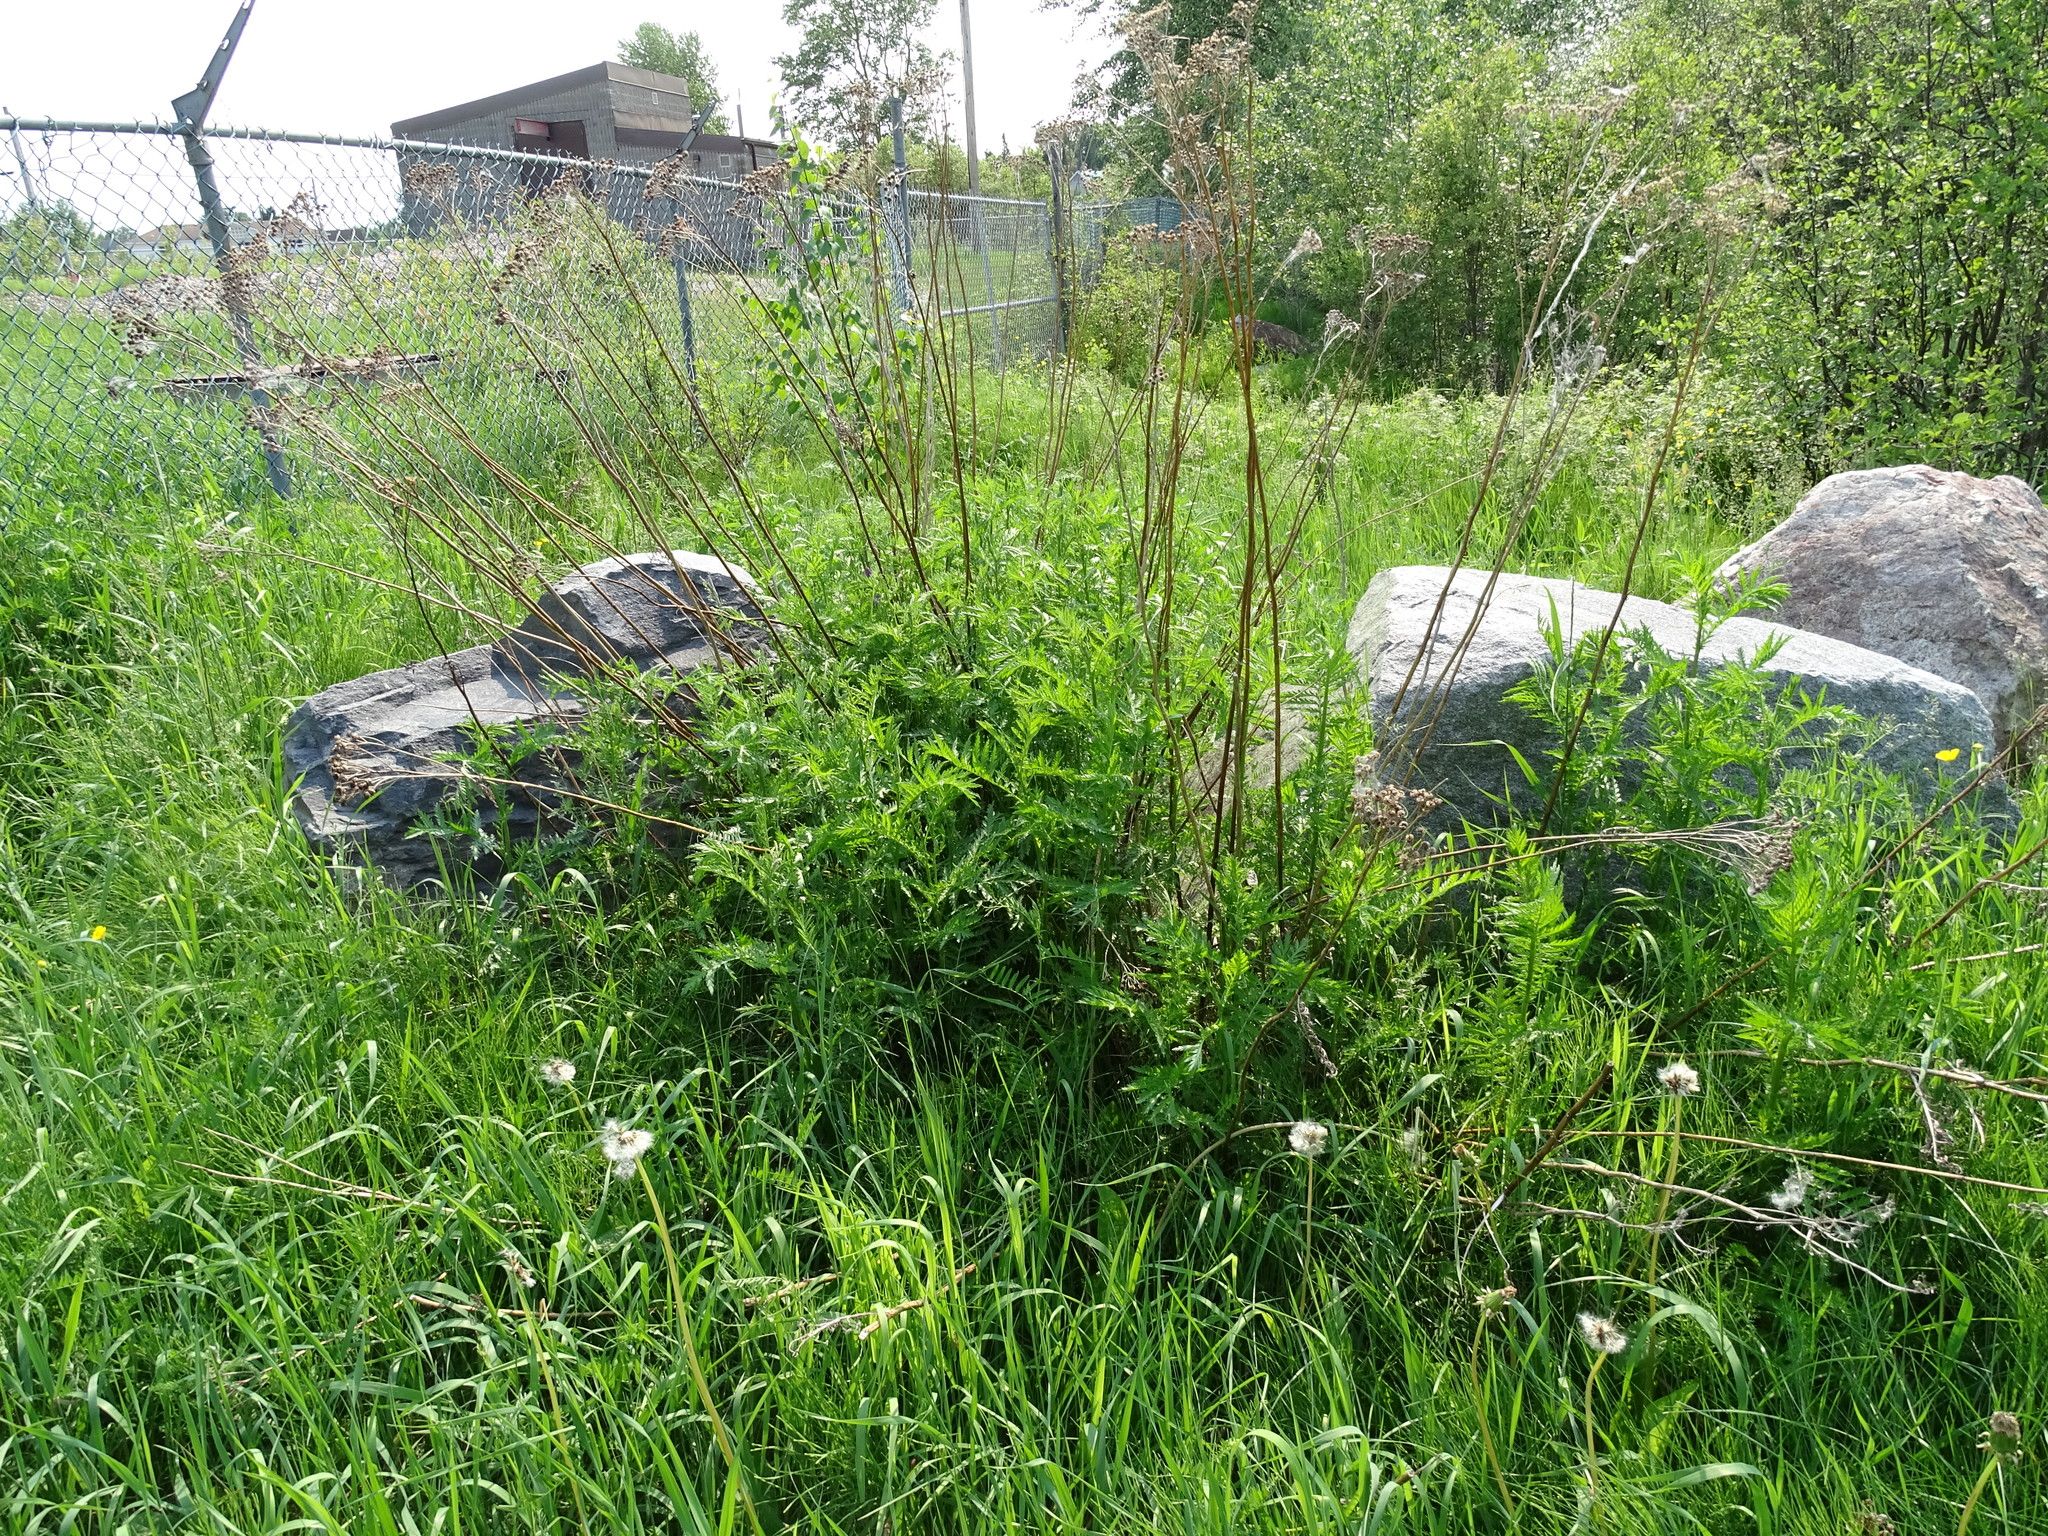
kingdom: Plantae
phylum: Tracheophyta
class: Magnoliopsida
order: Asterales
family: Asteraceae
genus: Tanacetum
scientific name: Tanacetum vulgare
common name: Common tansy
